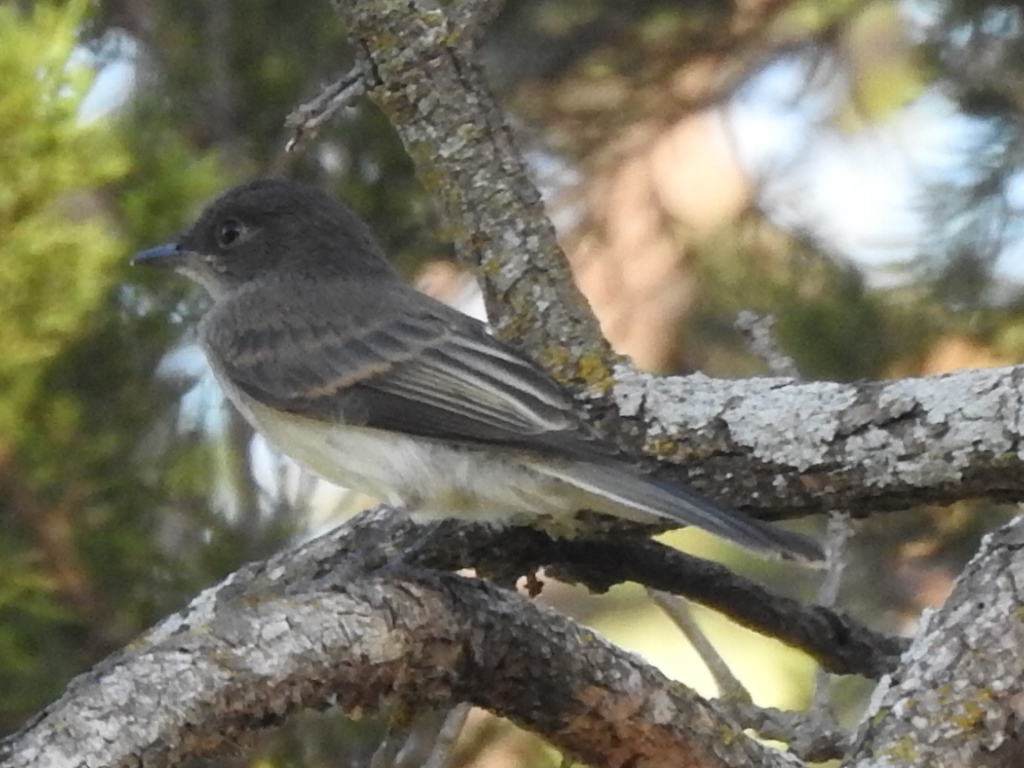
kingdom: Animalia
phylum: Chordata
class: Aves
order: Passeriformes
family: Tyrannidae
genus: Sayornis
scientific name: Sayornis phoebe
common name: Eastern phoebe
